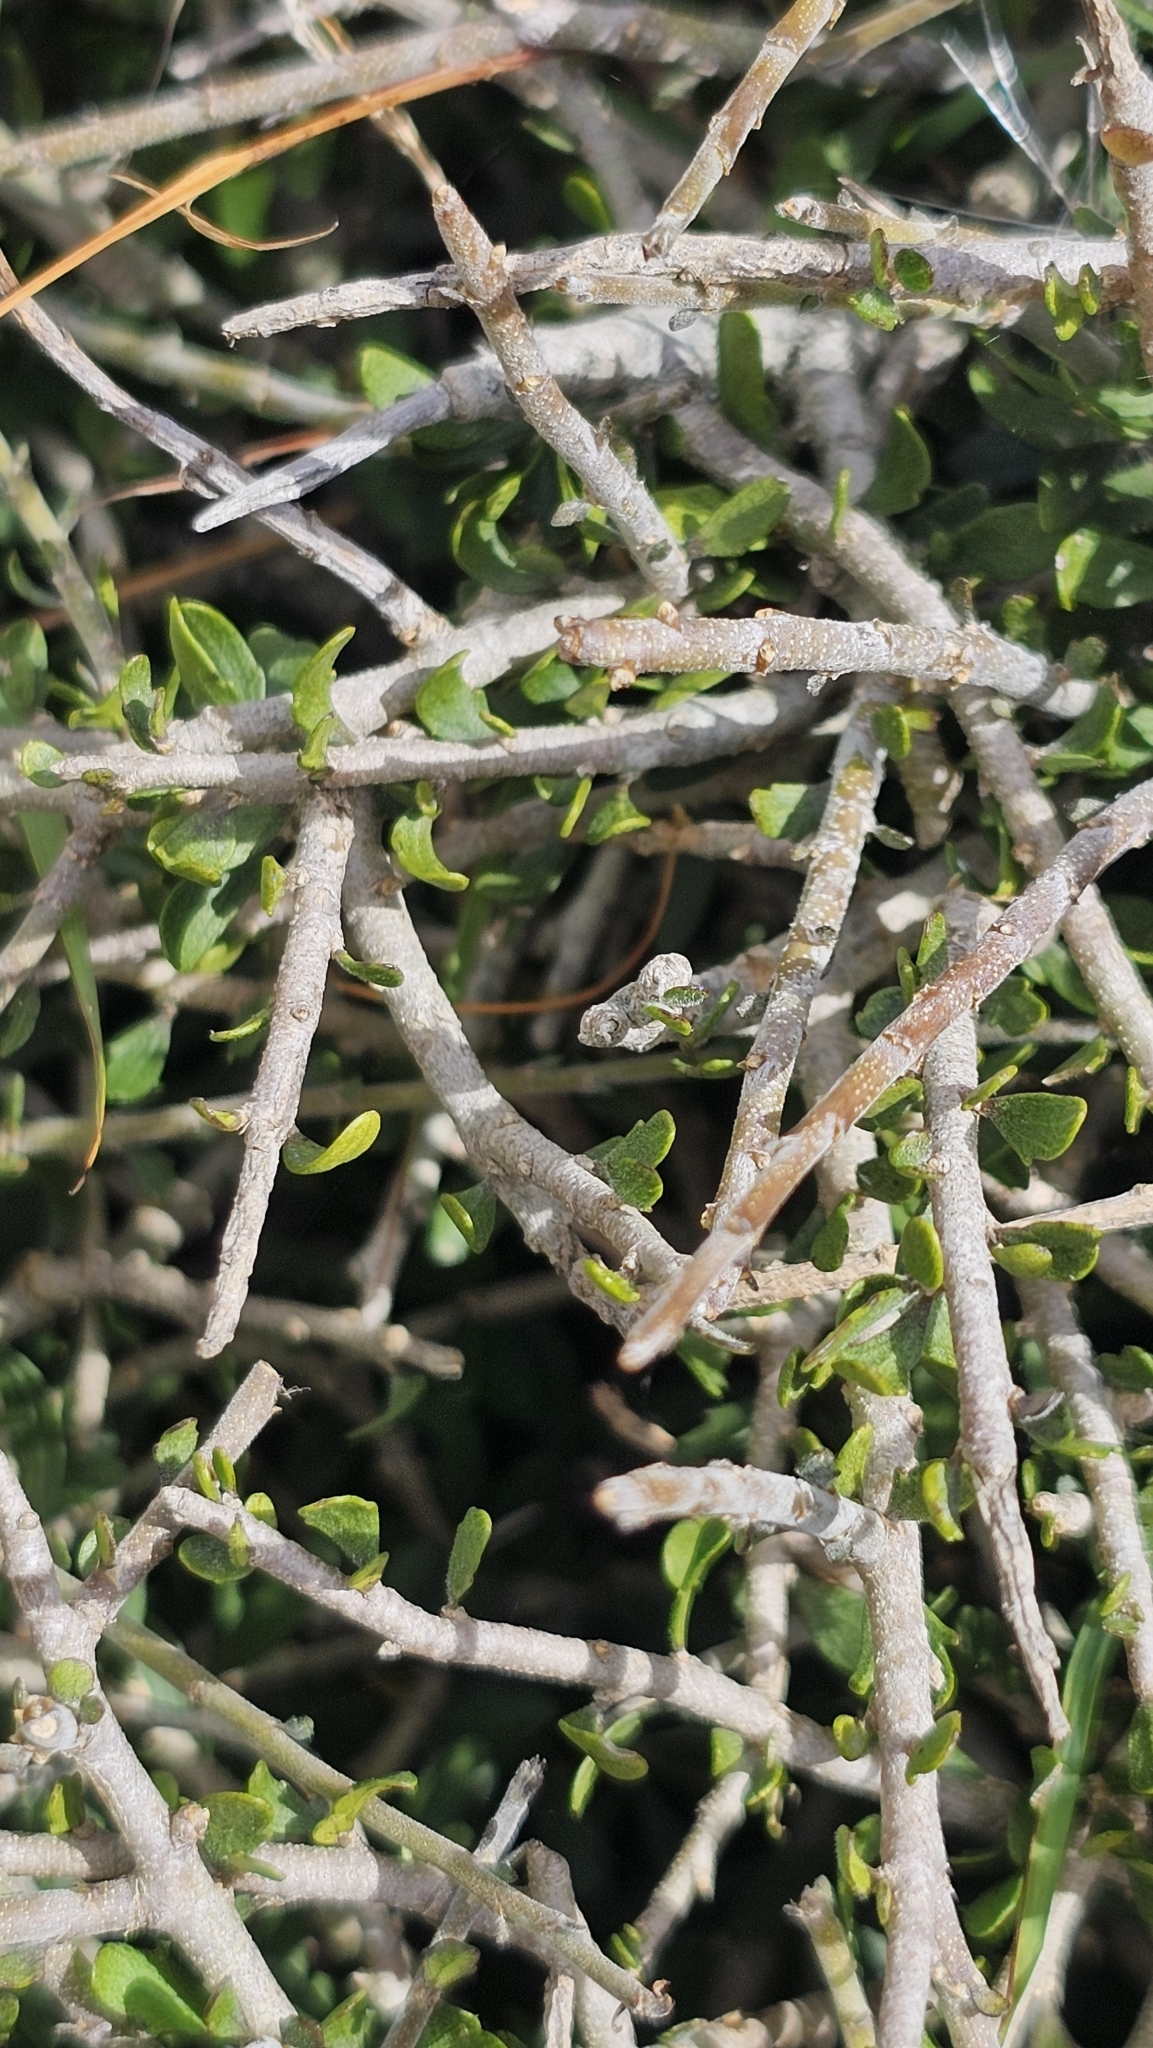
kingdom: Plantae
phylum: Tracheophyta
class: Magnoliopsida
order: Malpighiales
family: Violaceae
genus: Melicytus
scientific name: Melicytus alpinus
